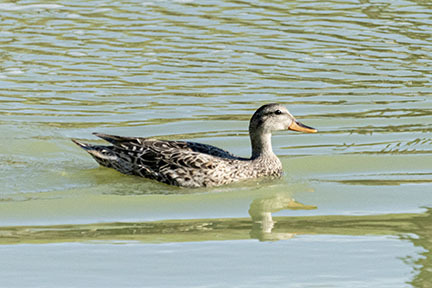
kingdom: Animalia
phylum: Chordata
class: Aves
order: Anseriformes
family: Anatidae
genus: Mareca
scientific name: Mareca strepera
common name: Gadwall
